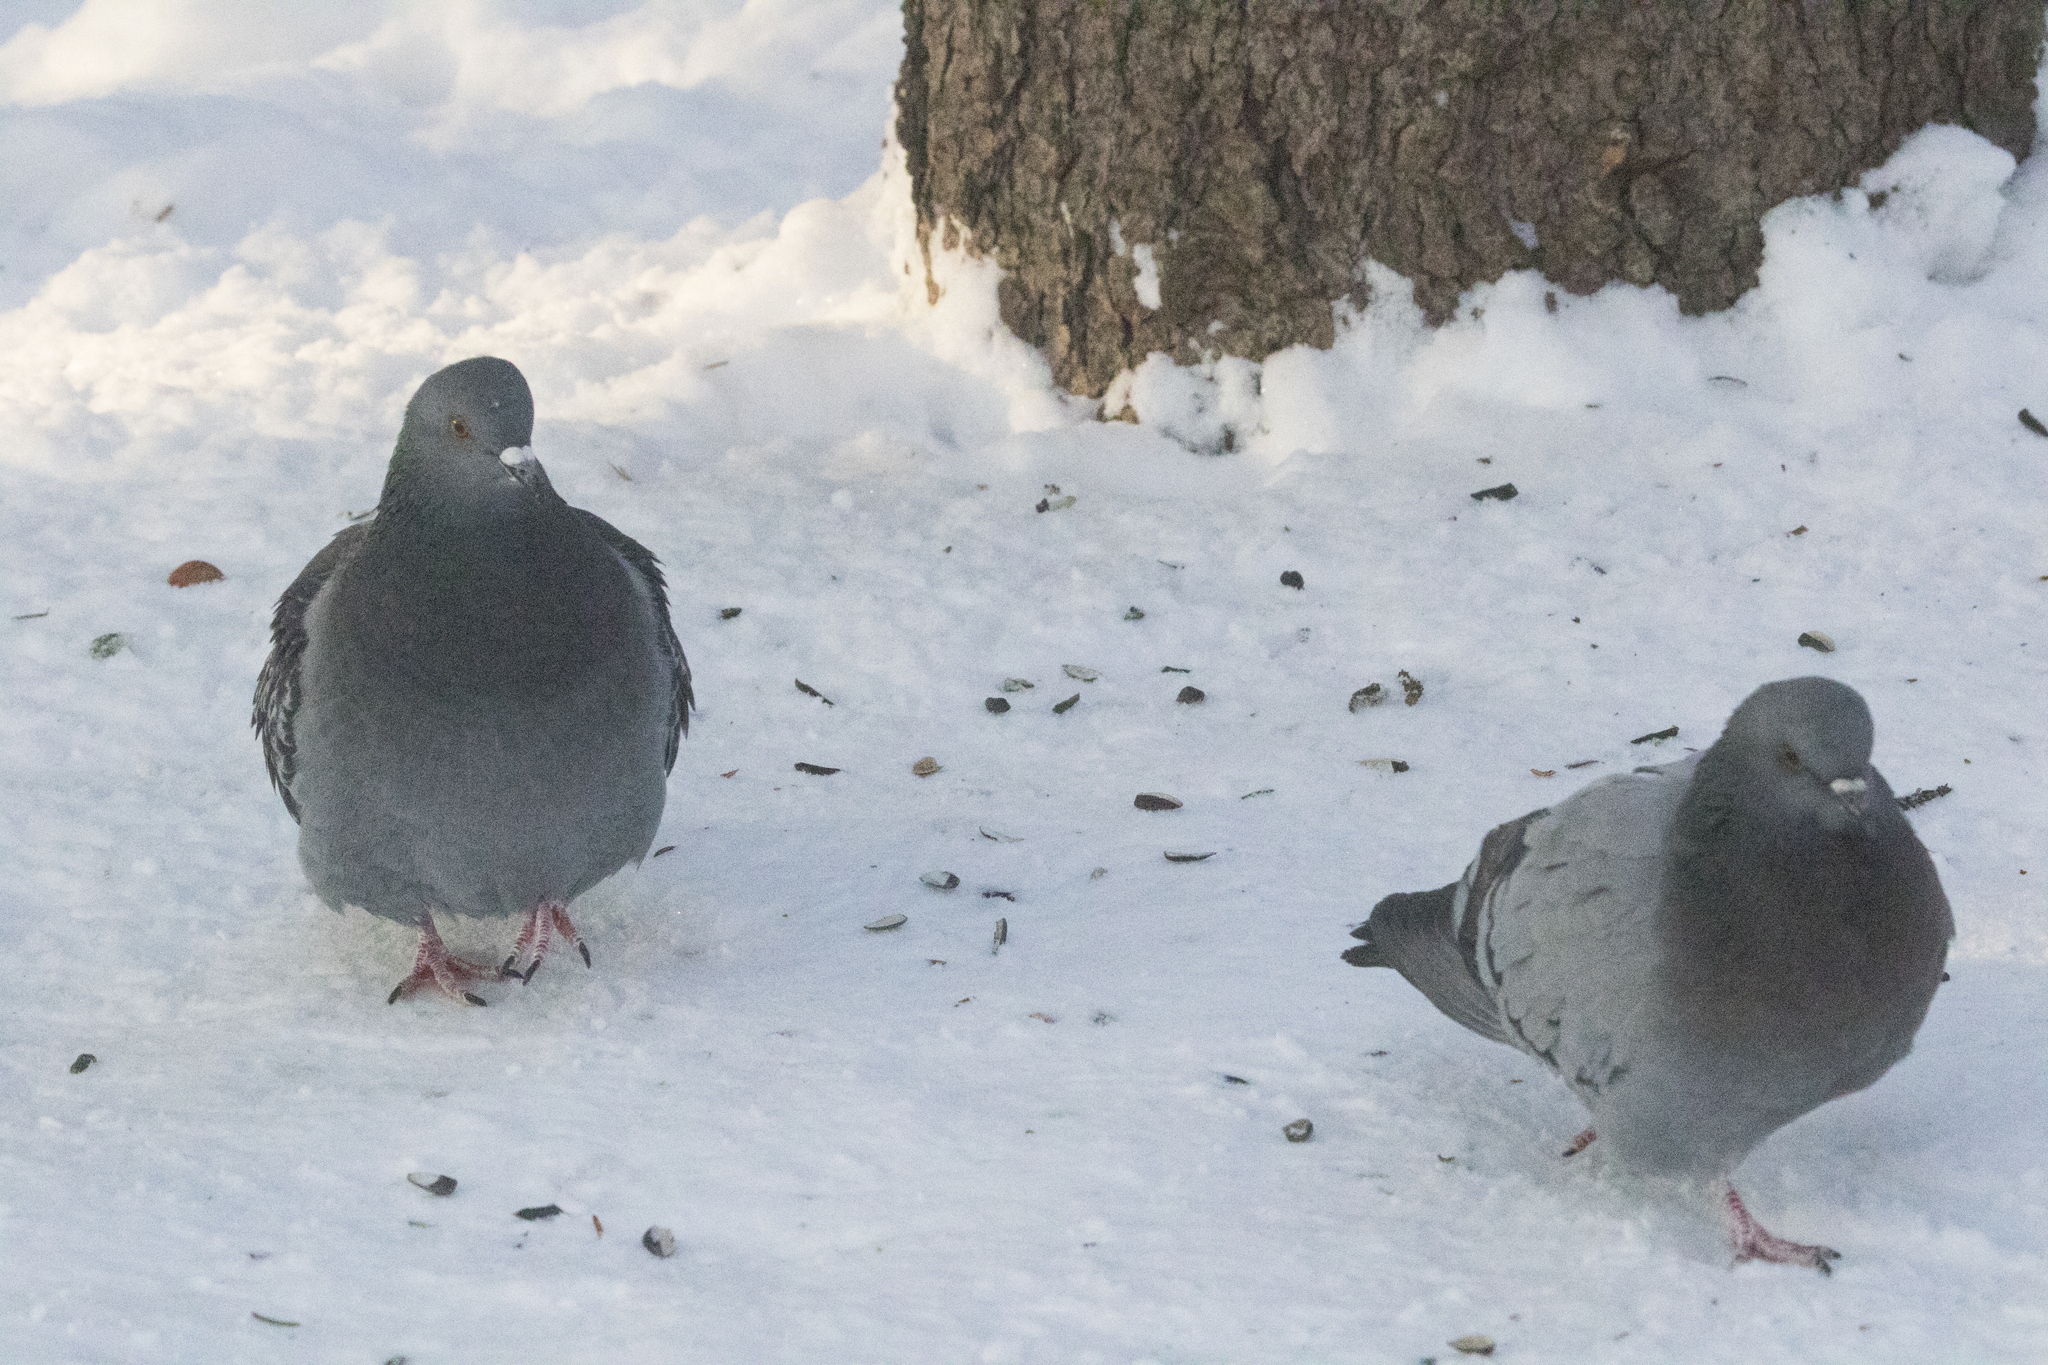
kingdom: Animalia
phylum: Chordata
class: Aves
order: Columbiformes
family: Columbidae
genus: Columba
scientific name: Columba livia
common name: Rock pigeon
